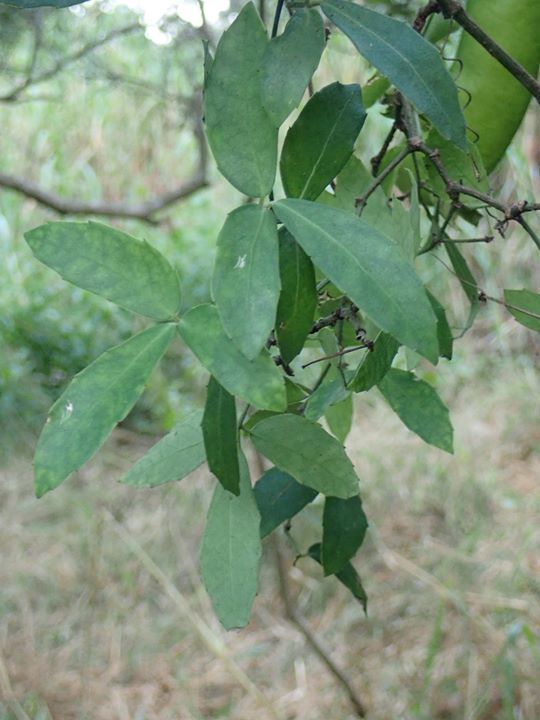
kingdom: Plantae
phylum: Tracheophyta
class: Magnoliopsida
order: Vitales
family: Vitaceae
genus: Tetrastigma
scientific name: Tetrastigma formosanum
